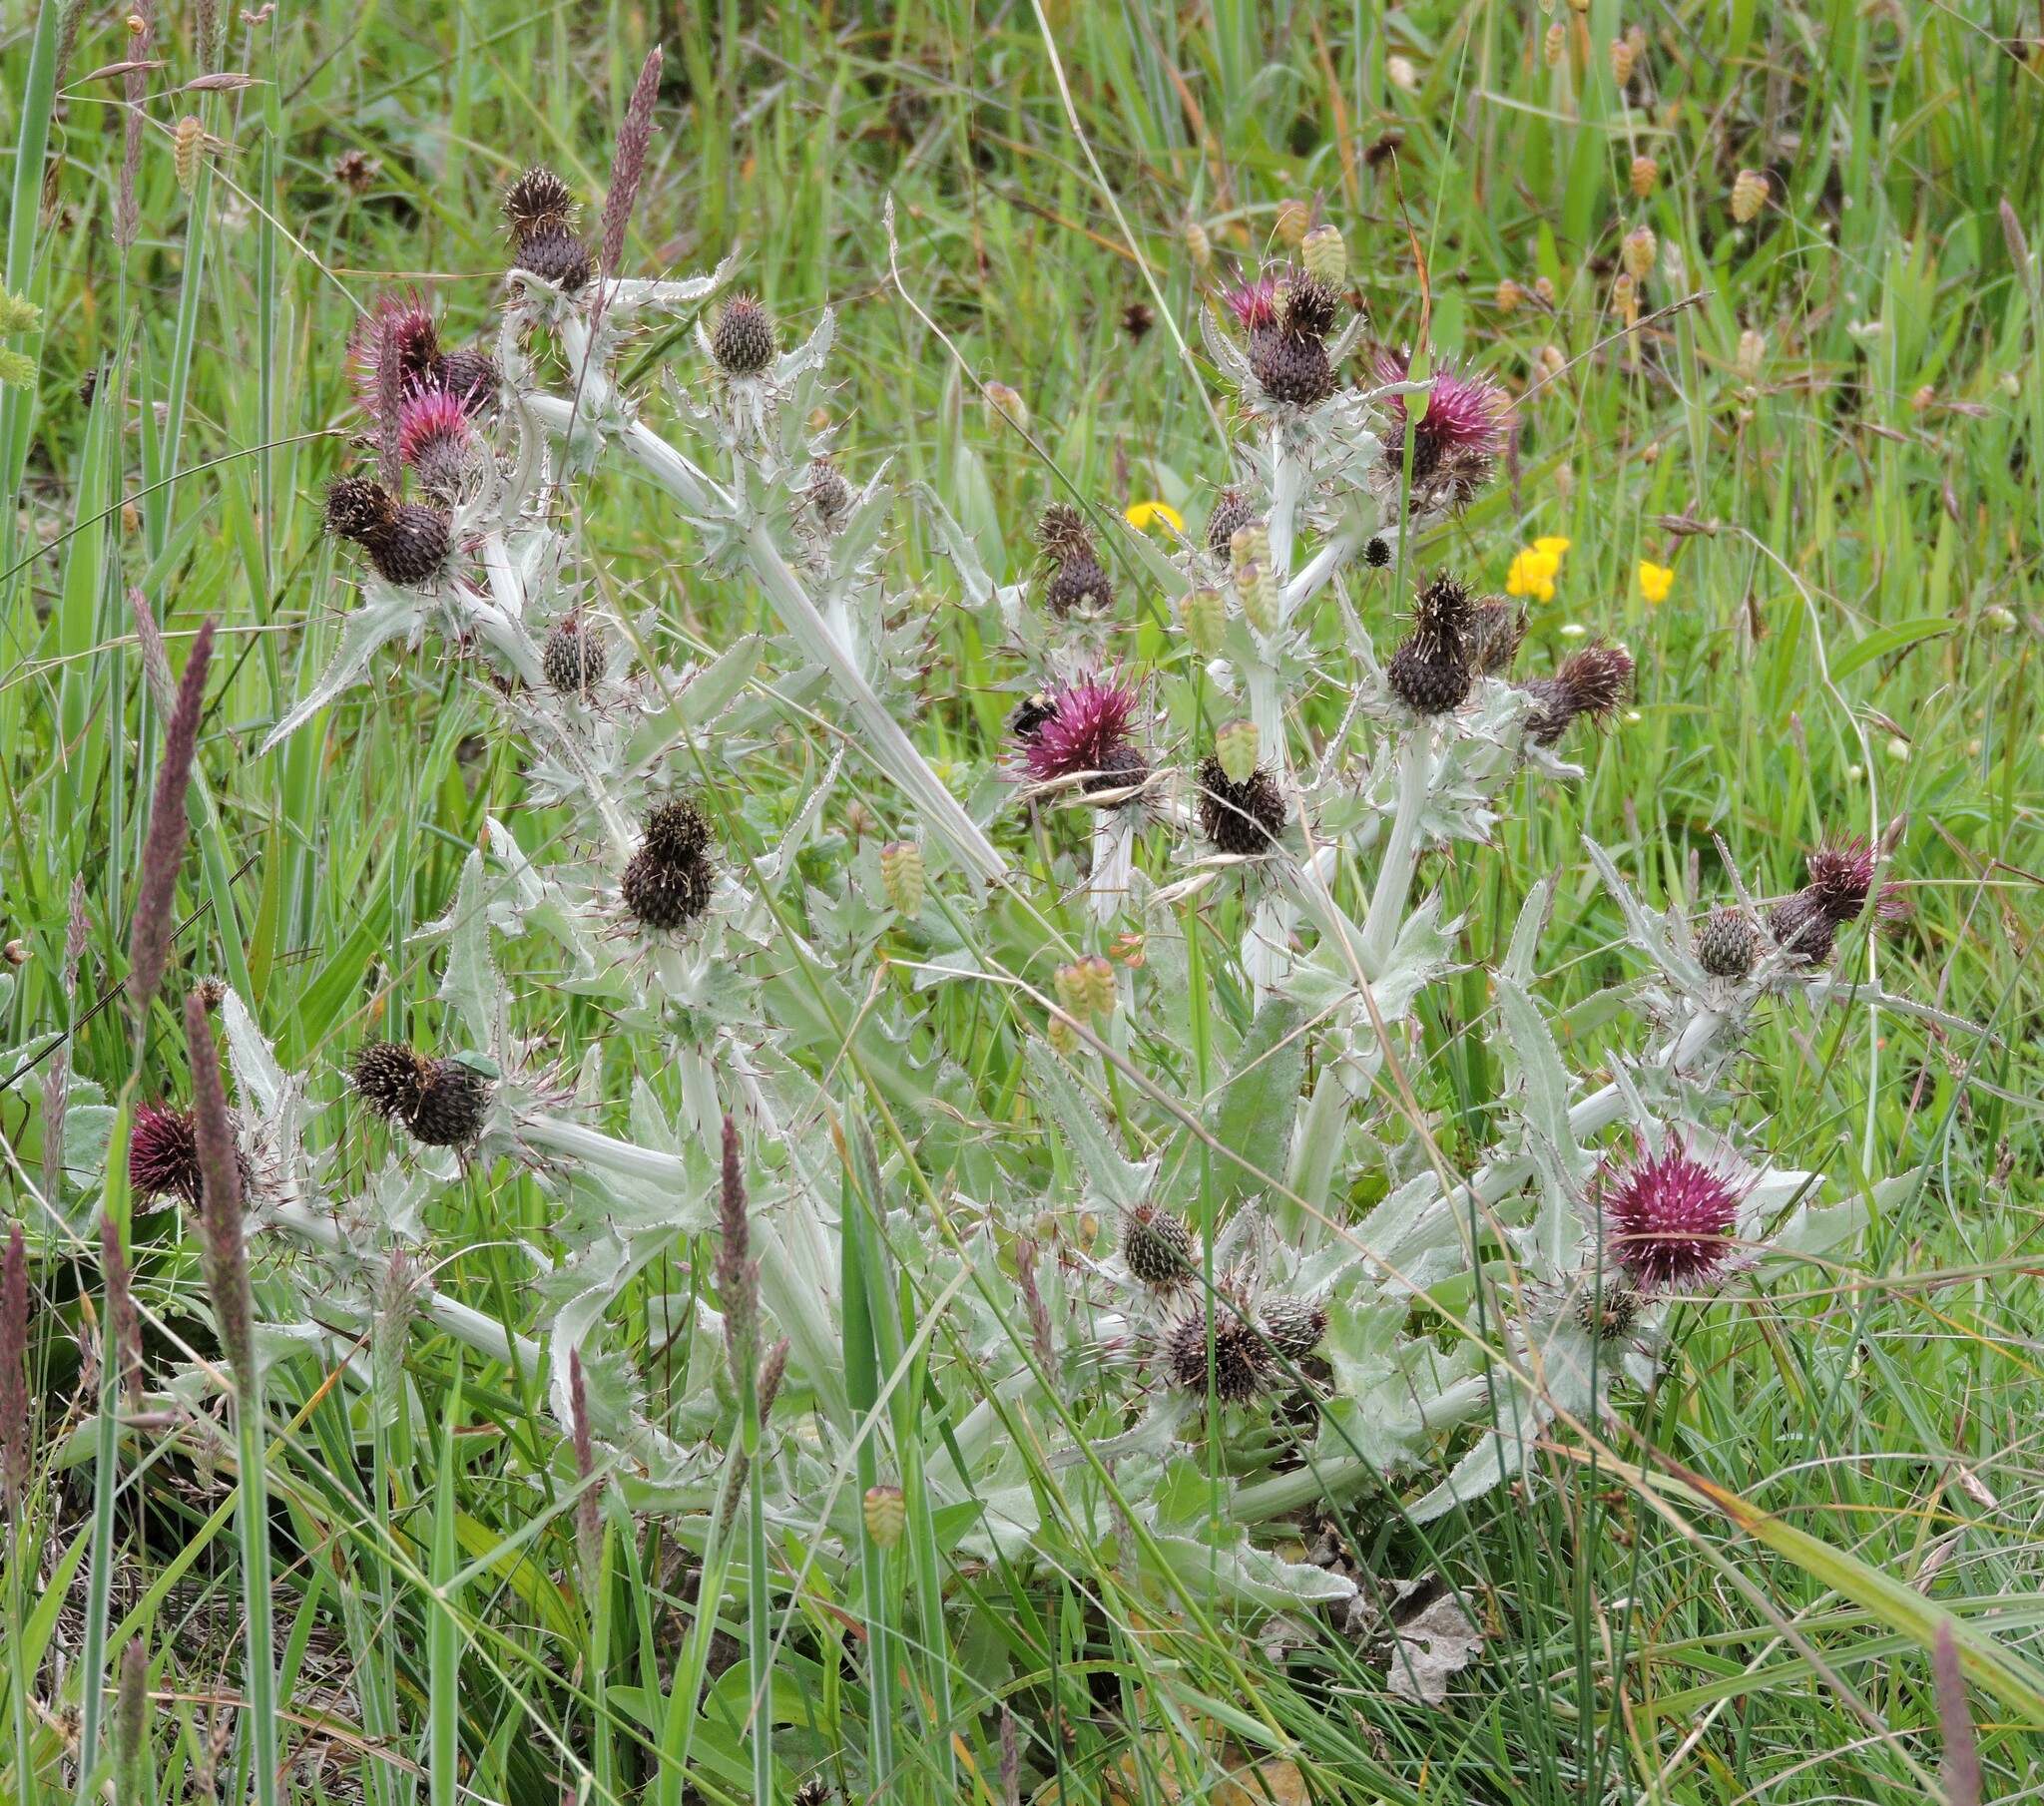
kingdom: Plantae
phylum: Tracheophyta
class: Magnoliopsida
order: Asterales
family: Asteraceae
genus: Cirsium
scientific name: Cirsium douglasii
